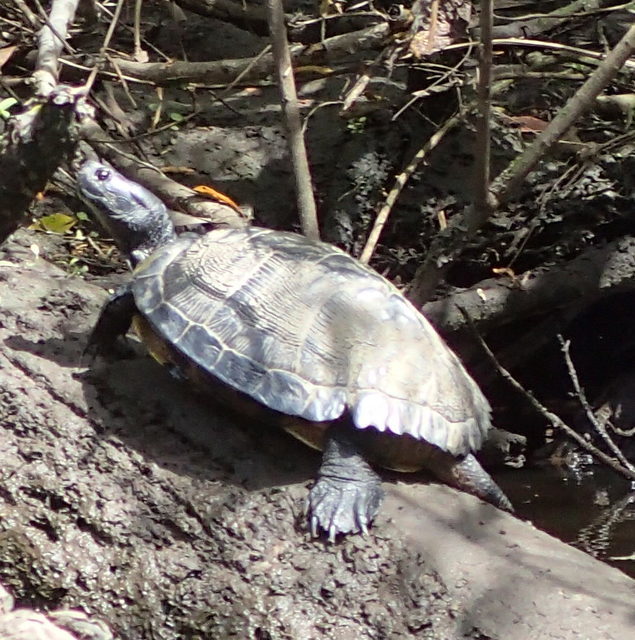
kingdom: Animalia
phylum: Chordata
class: Testudines
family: Emydidae
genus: Trachemys
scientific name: Trachemys scripta
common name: Slider
